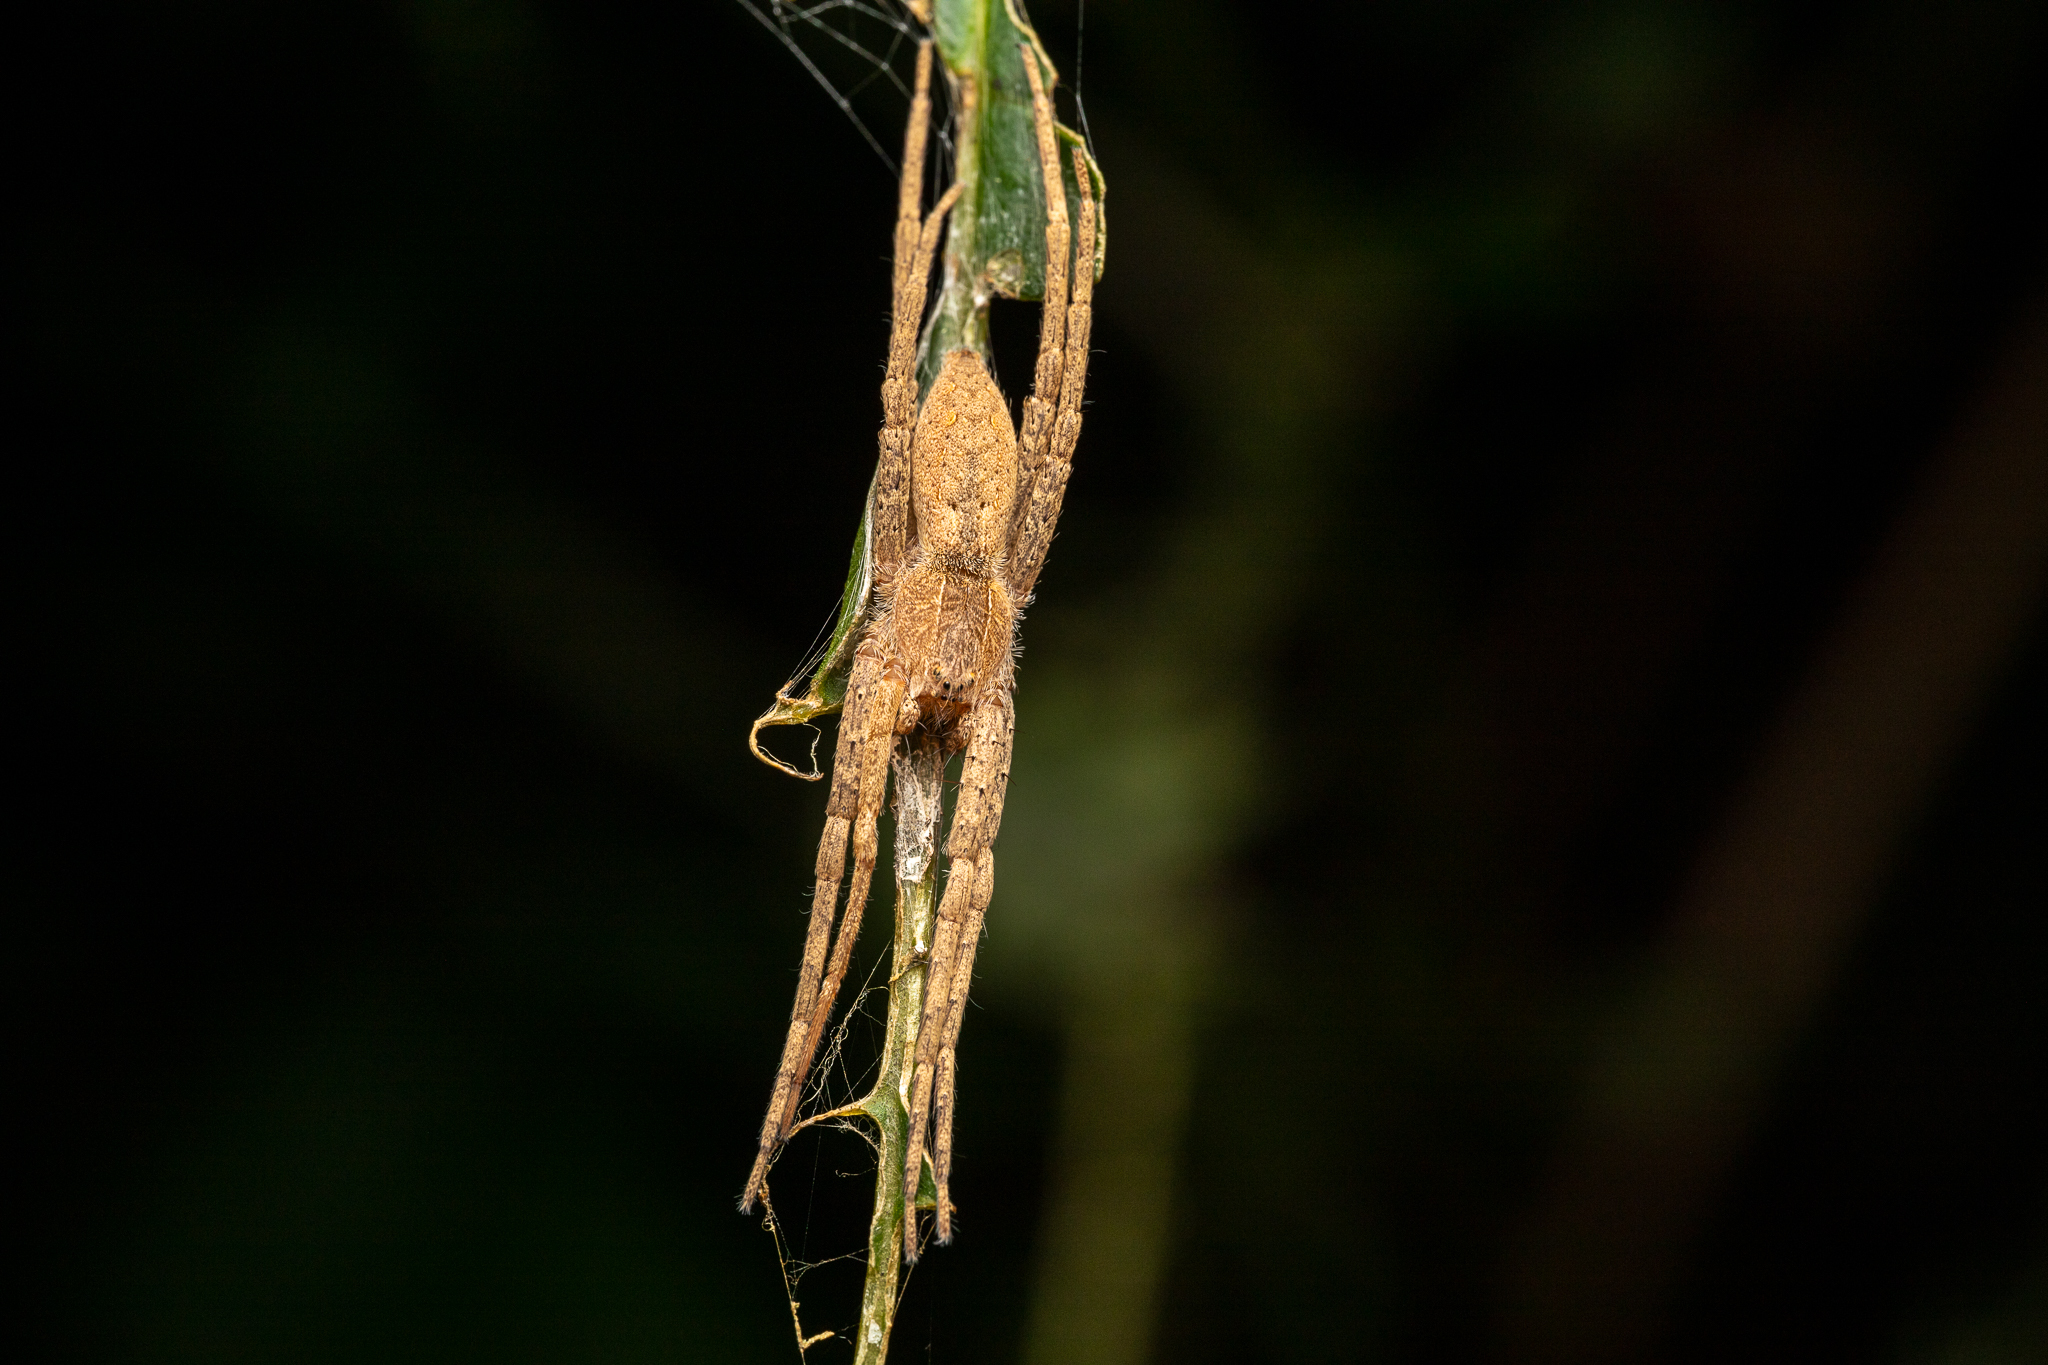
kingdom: Animalia
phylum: Arthropoda
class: Arachnida
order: Araneae
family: Pisauridae
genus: Pisaurina
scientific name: Pisaurina mira
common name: American nursery web spider
